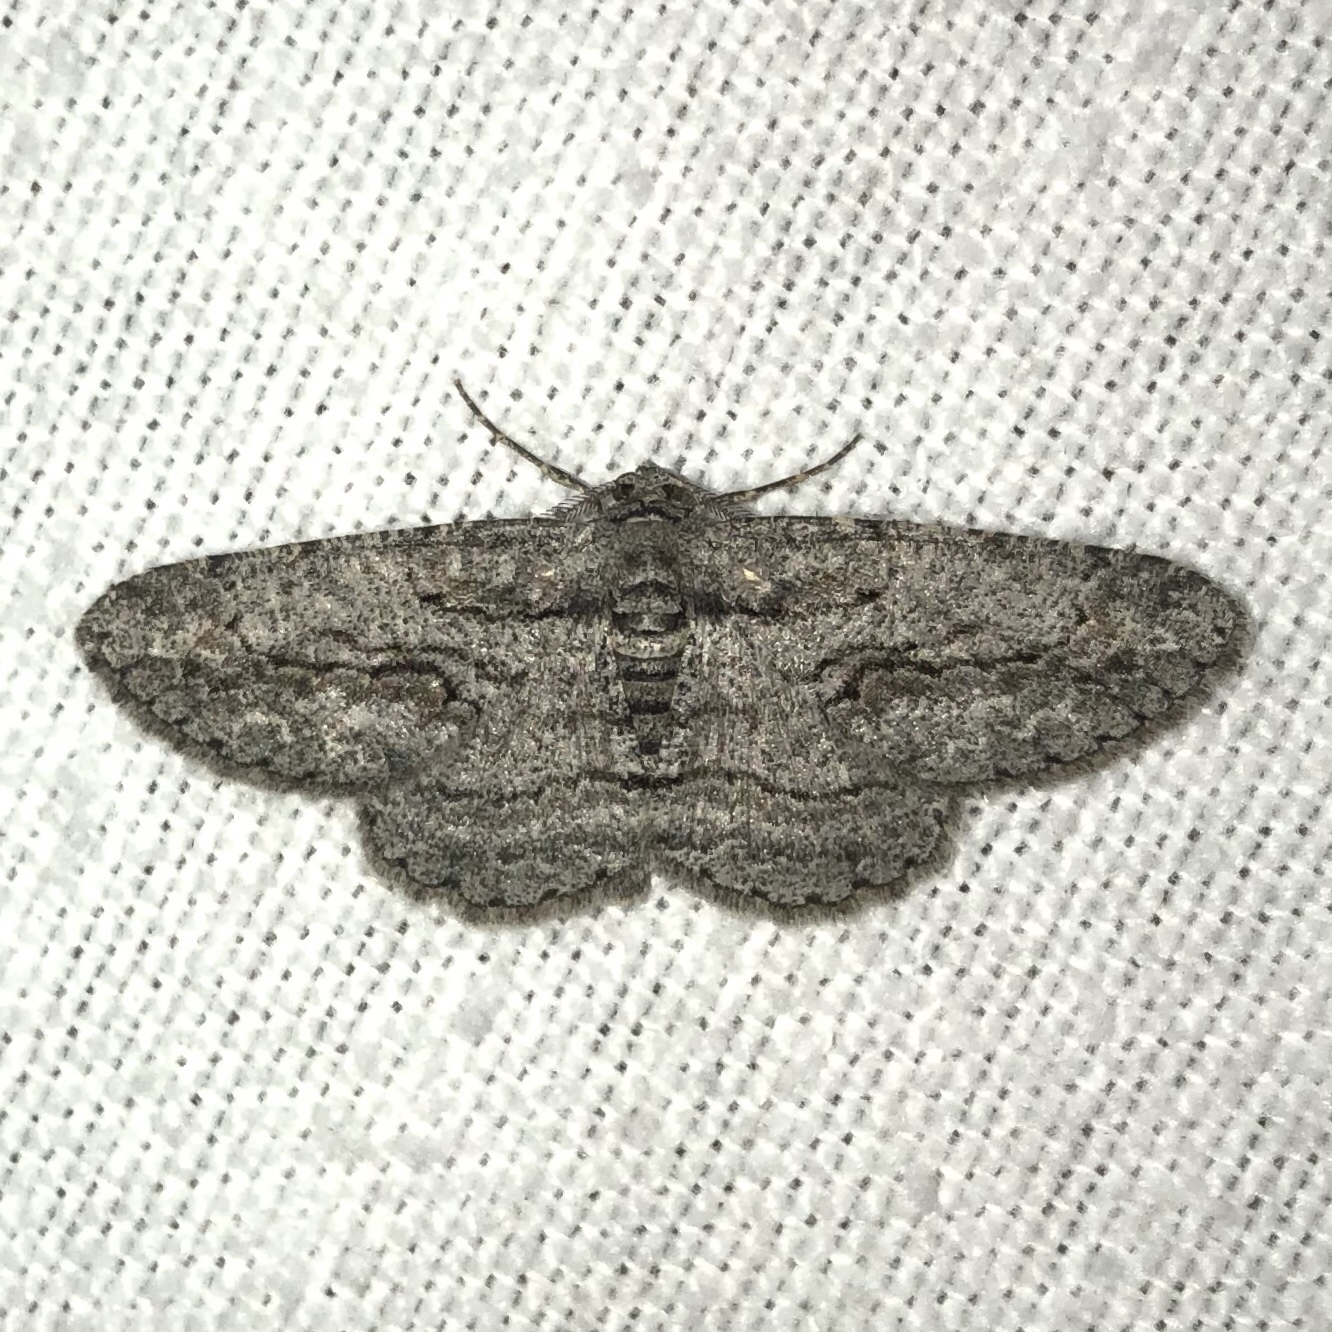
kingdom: Animalia
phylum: Arthropoda
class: Insecta
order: Lepidoptera
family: Geometridae
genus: Anavitrinella
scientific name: Anavitrinella pampinaria
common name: Common gray
